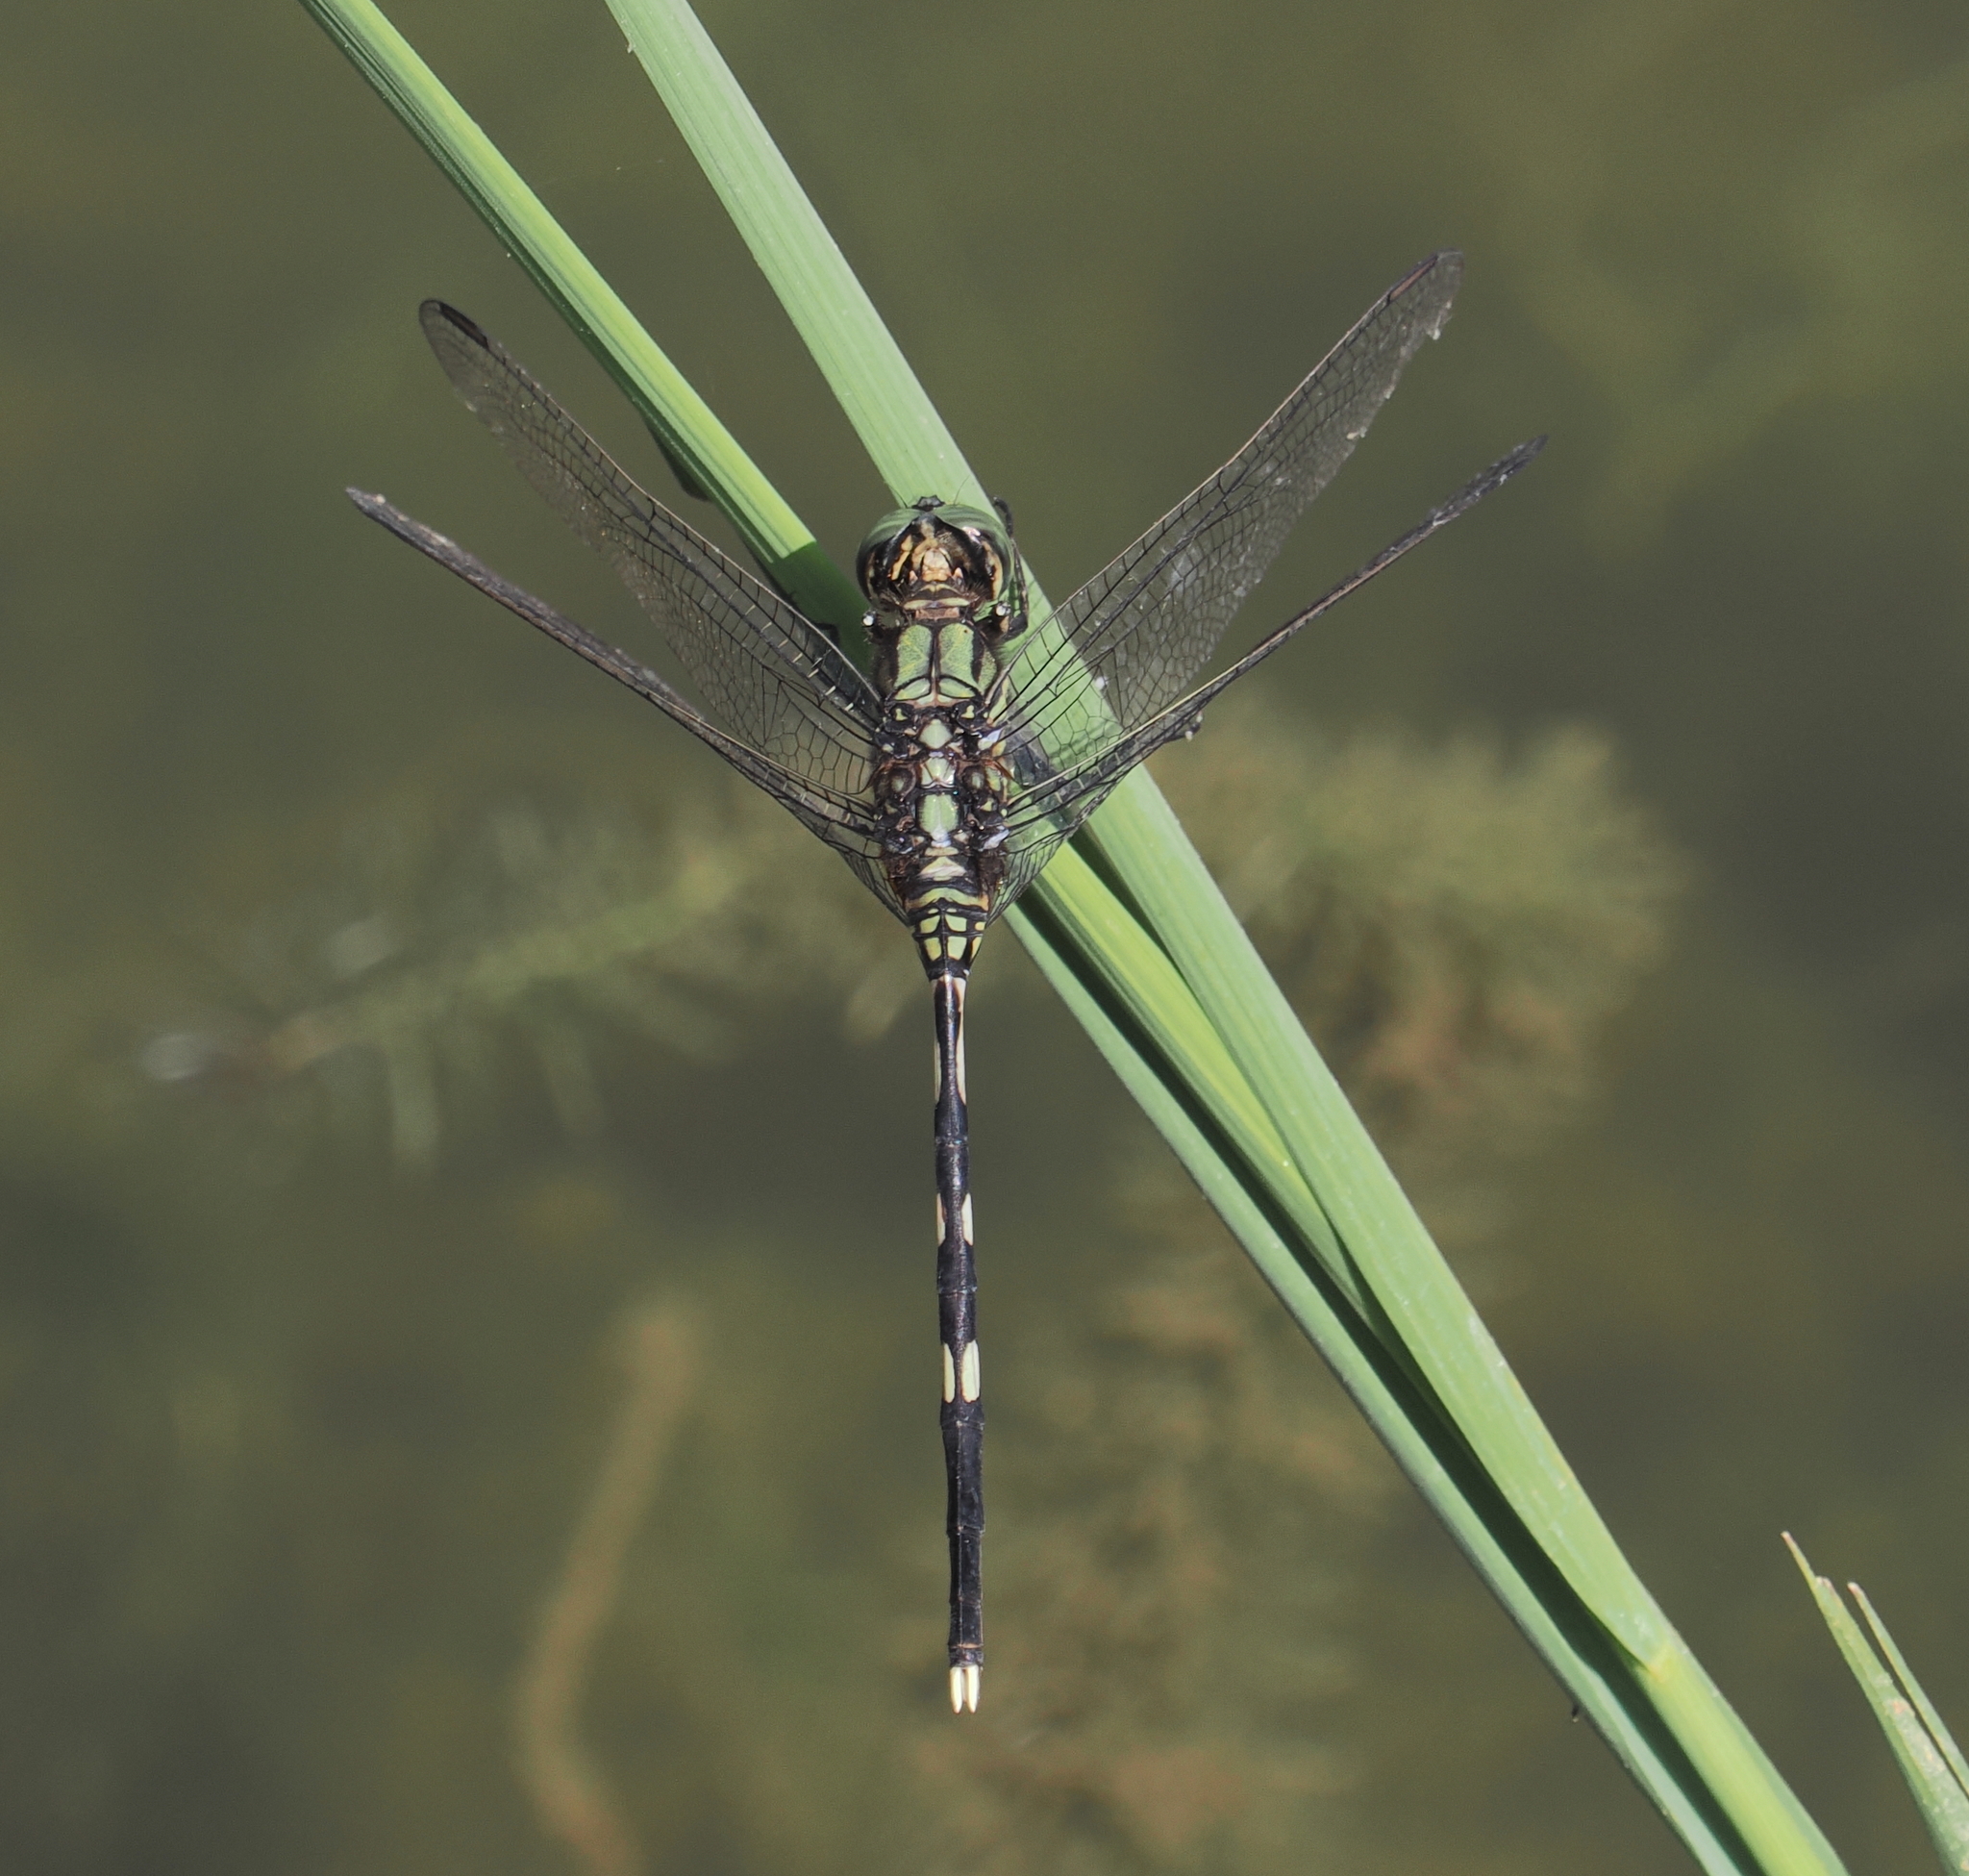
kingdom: Animalia
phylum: Arthropoda
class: Insecta
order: Odonata
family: Libellulidae
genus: Orthetrum
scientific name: Orthetrum sabina
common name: Slender skimmer
